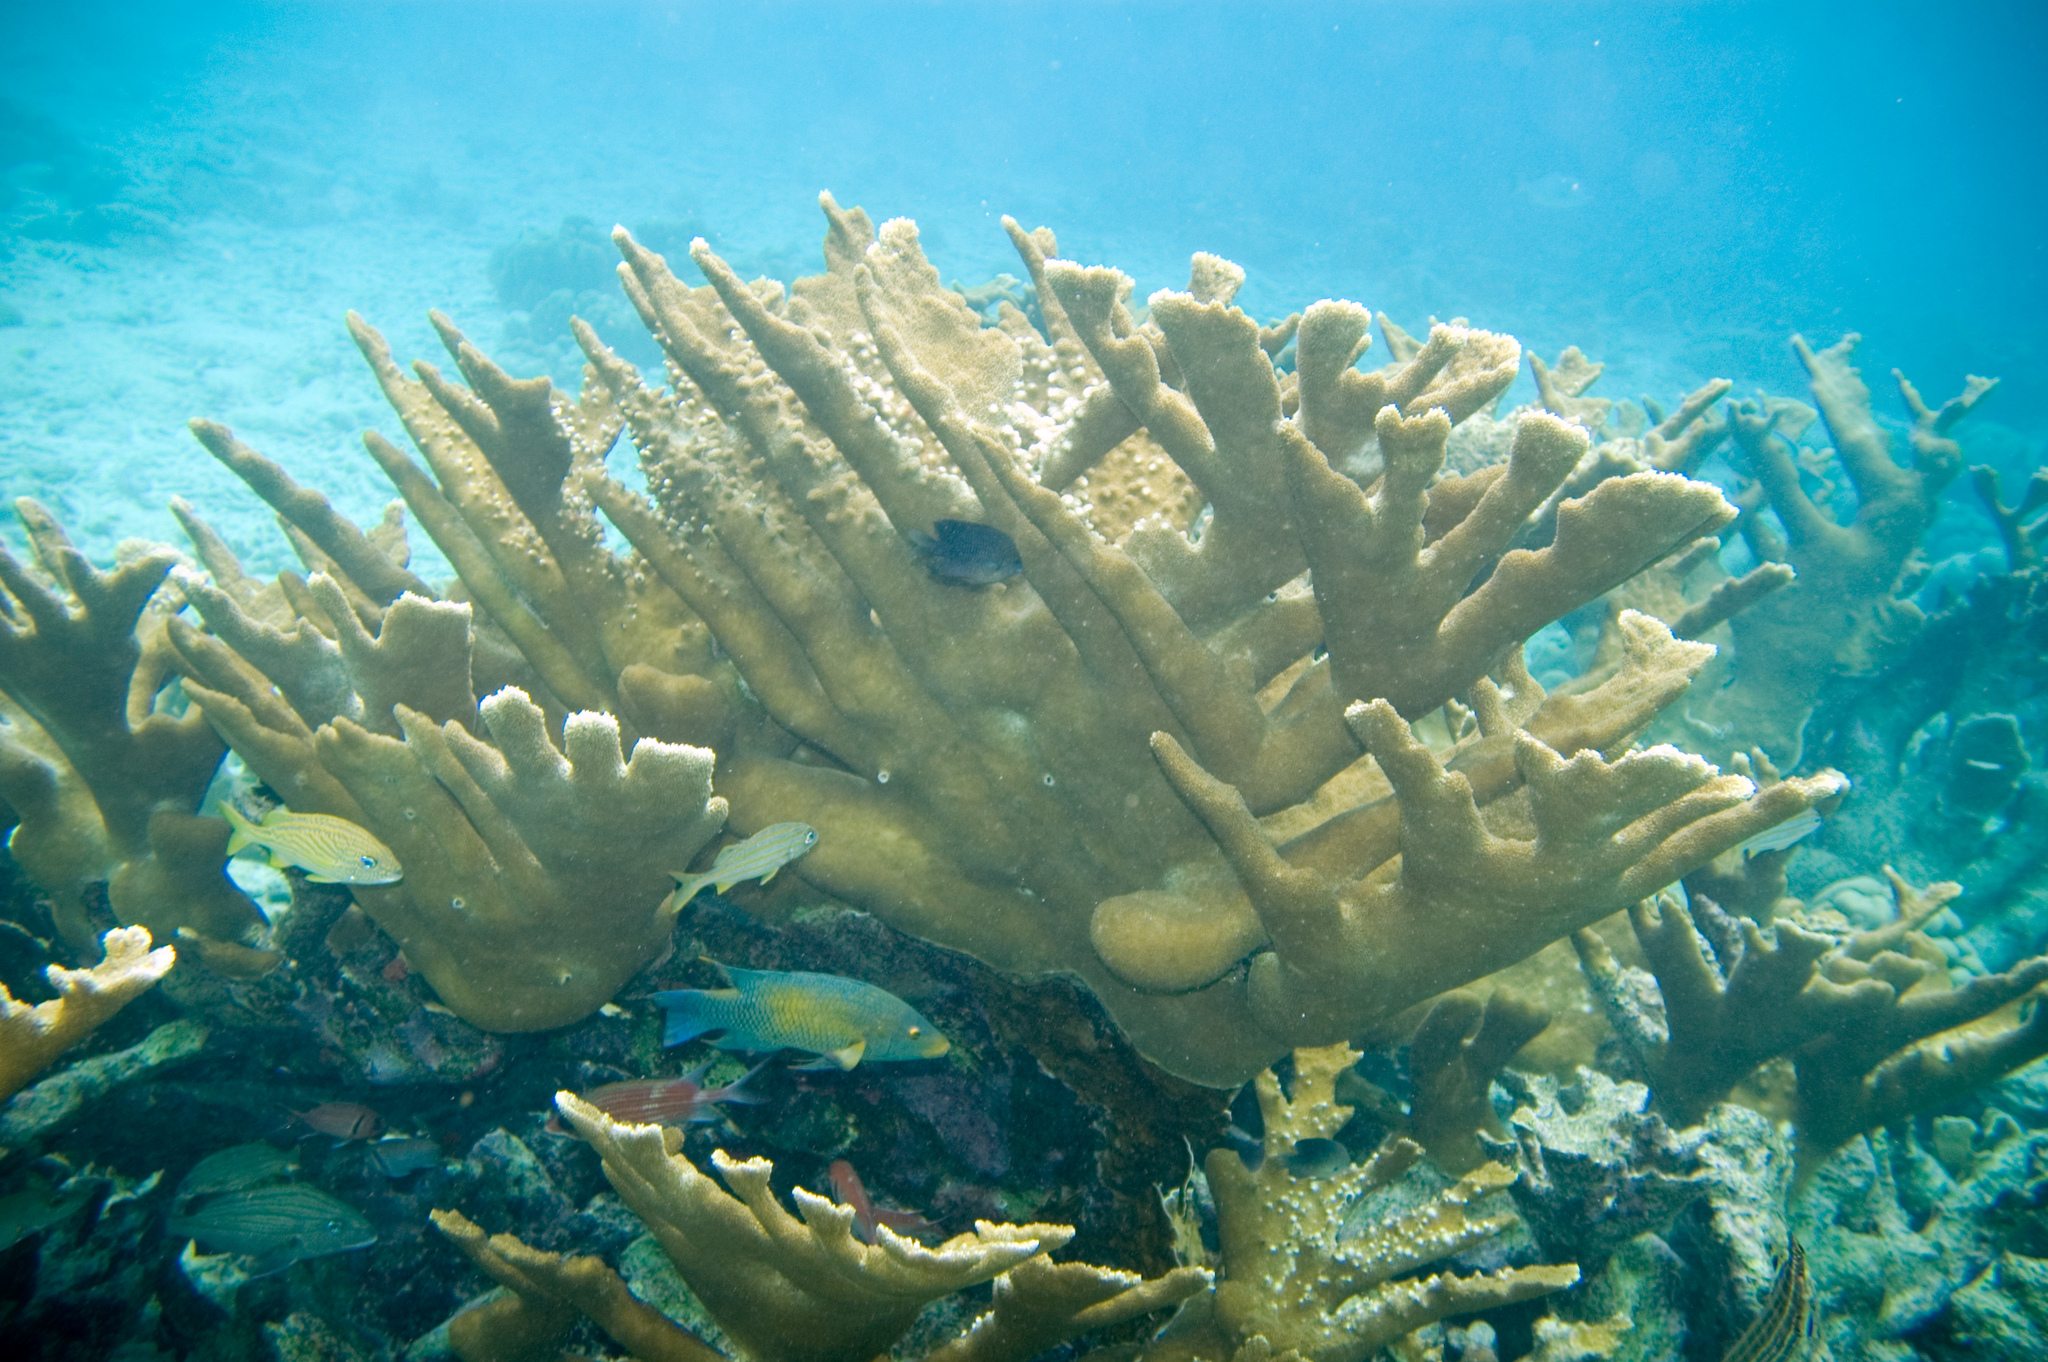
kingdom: Animalia
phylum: Cnidaria
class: Anthozoa
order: Scleractinia
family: Acroporidae
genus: Acropora
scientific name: Acropora palmata
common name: Elkhorn coral
